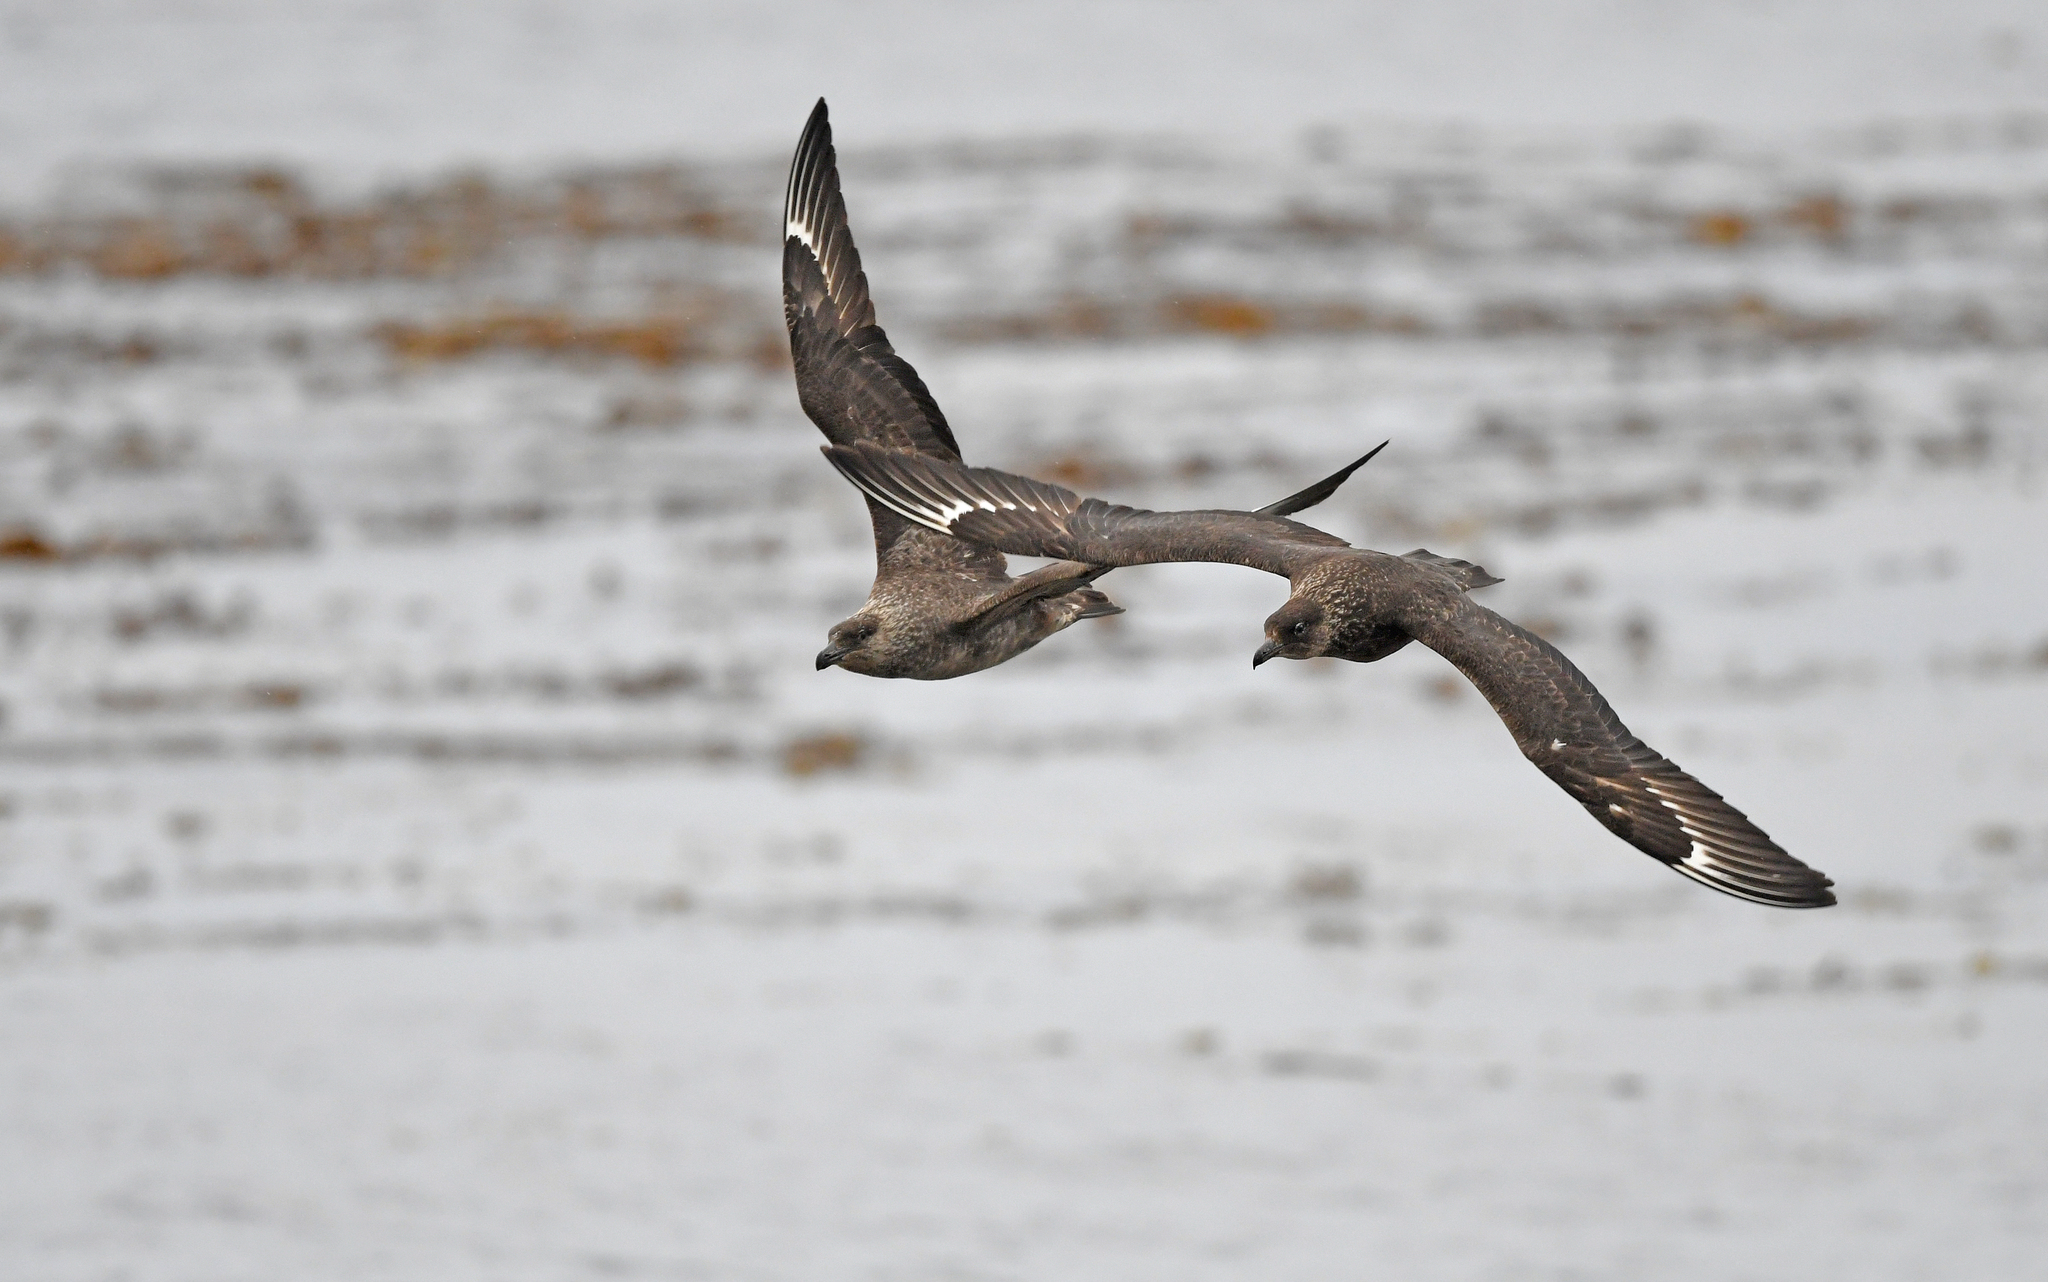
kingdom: Animalia
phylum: Chordata
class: Aves
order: Charadriiformes
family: Stercorariidae
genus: Stercorarius
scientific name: Stercorarius chilensis
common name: Chilean skua
